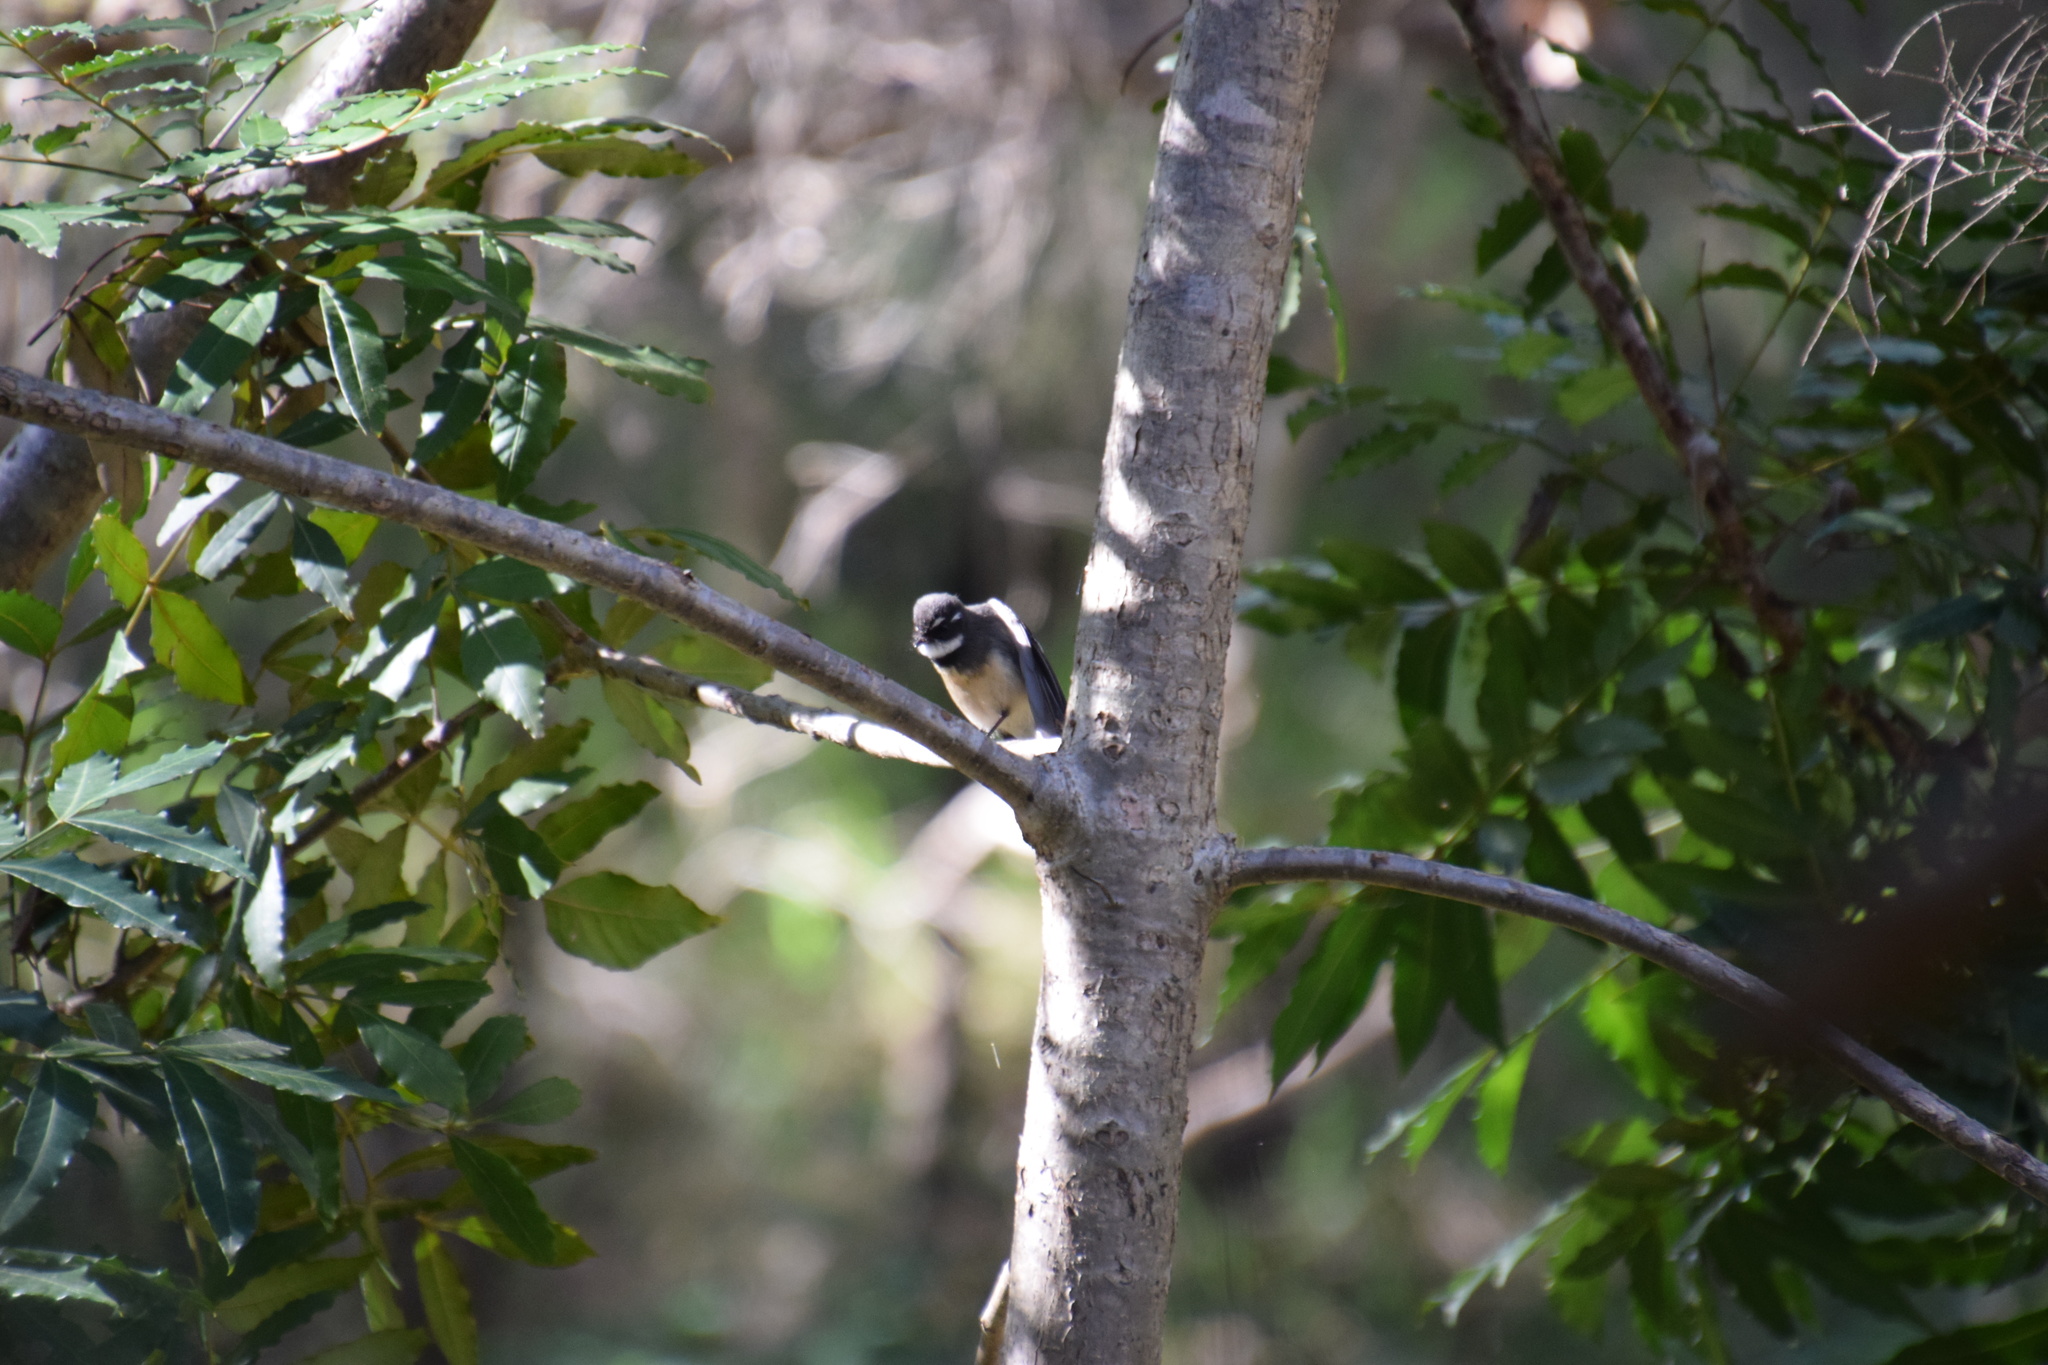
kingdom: Animalia
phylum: Chordata
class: Aves
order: Passeriformes
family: Rhipiduridae
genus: Rhipidura
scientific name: Rhipidura albiscapa
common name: Grey fantail
